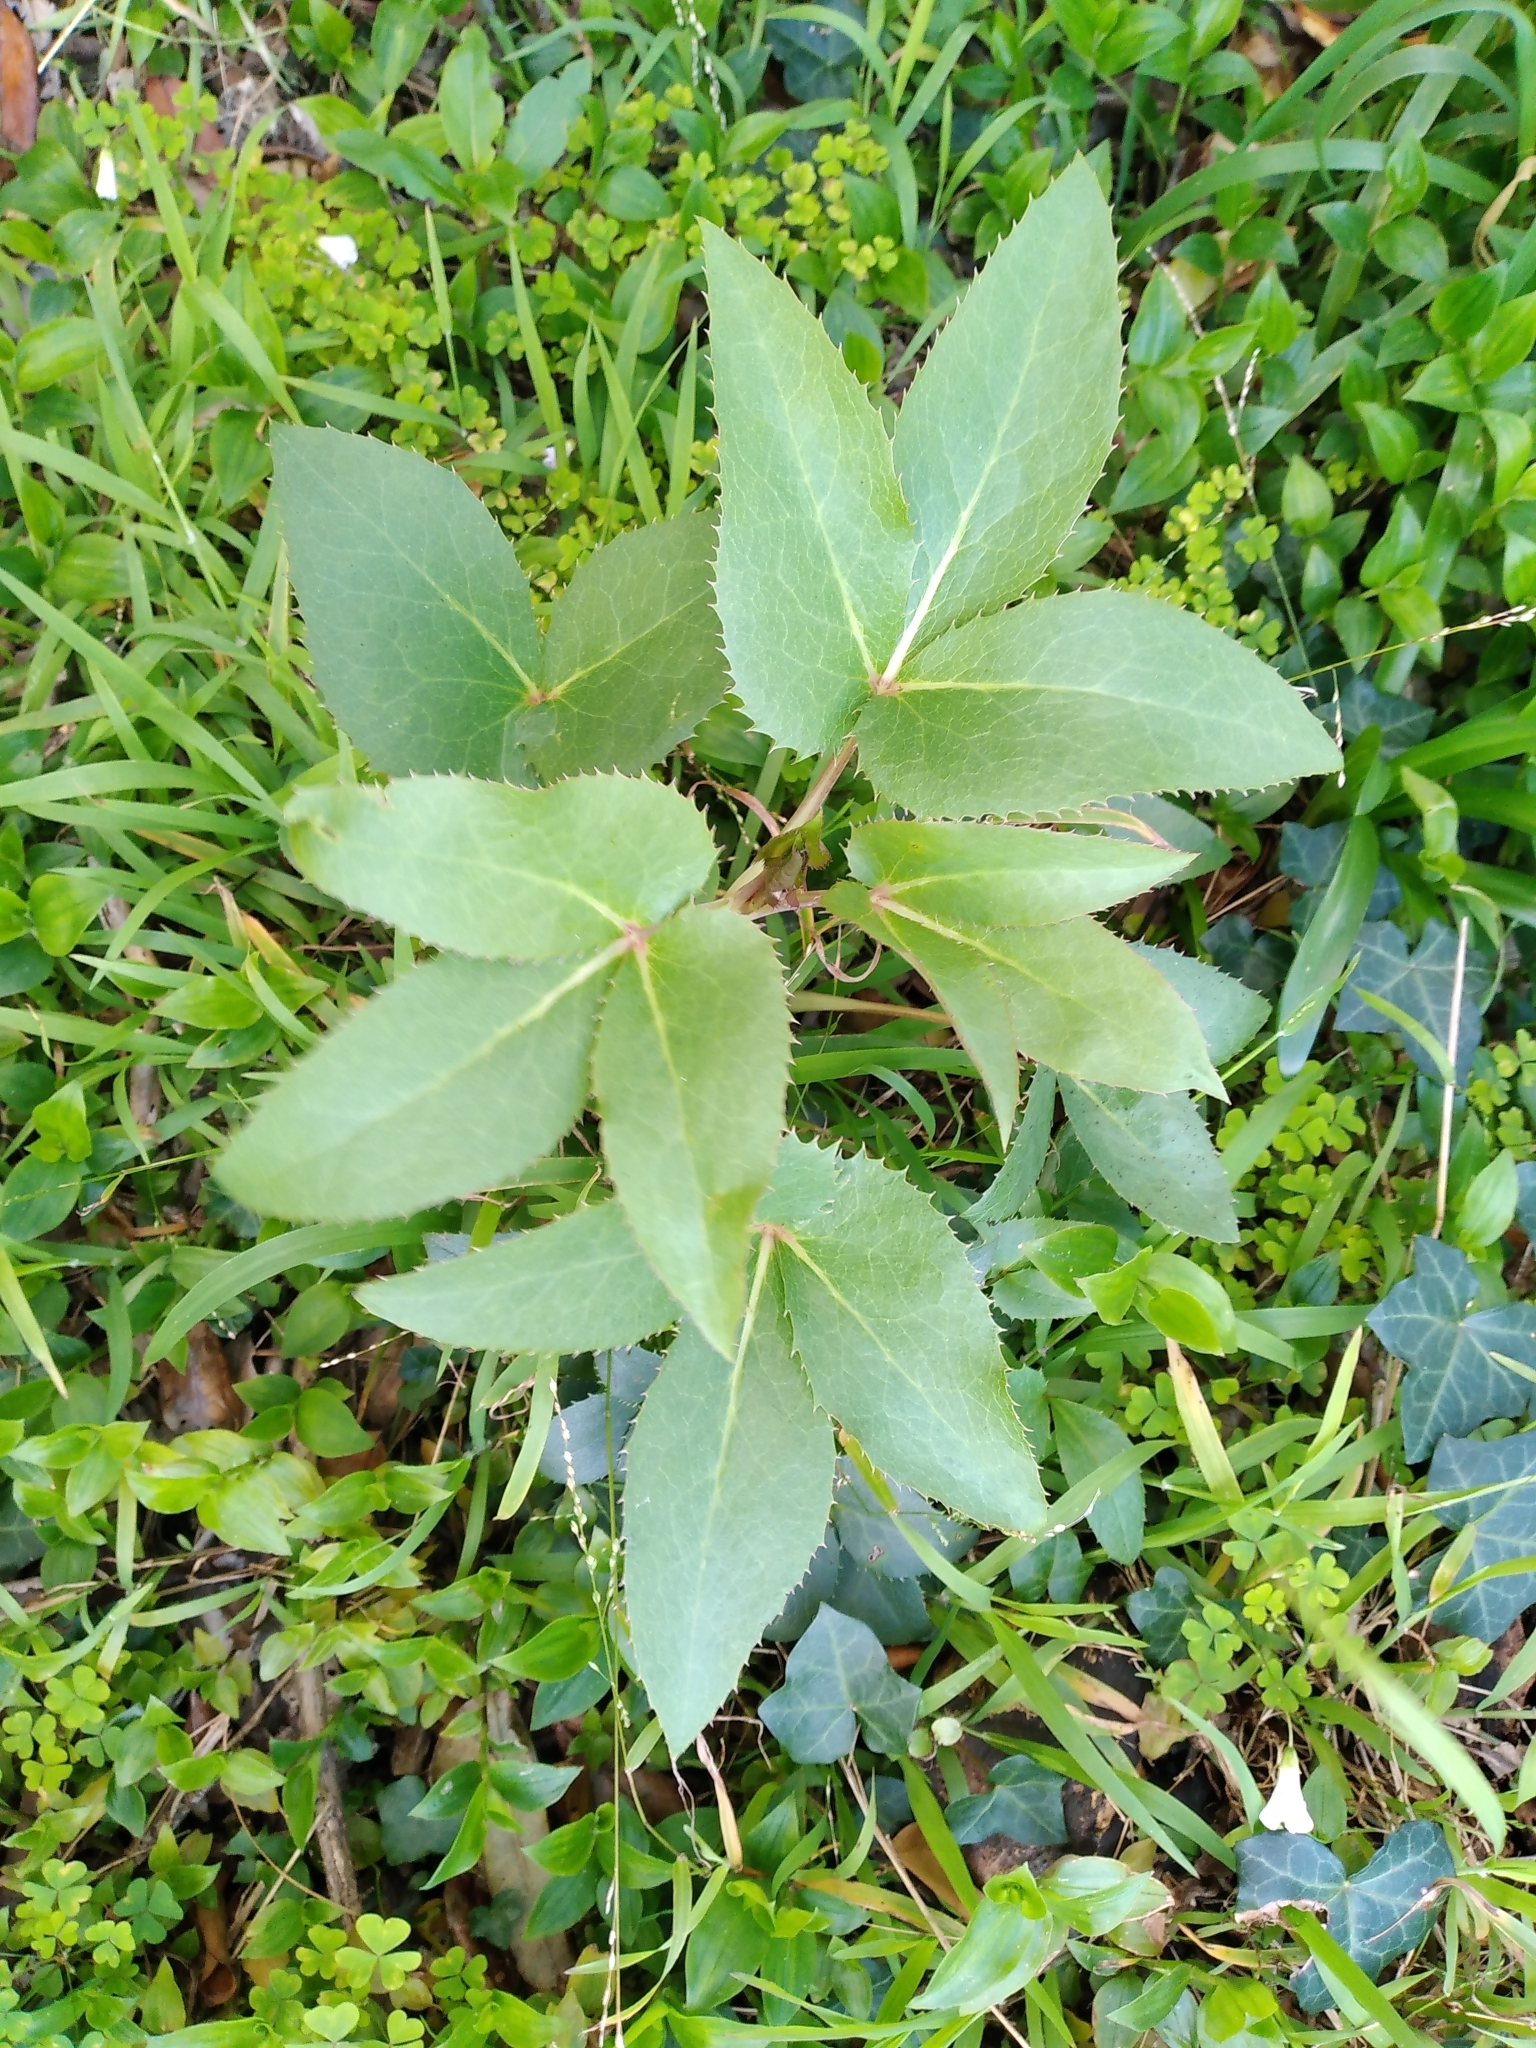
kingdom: Plantae
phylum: Tracheophyta
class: Magnoliopsida
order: Ranunculales
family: Ranunculaceae
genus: Helleborus
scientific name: Helleborus argutifolius
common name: Corsican hellebore
